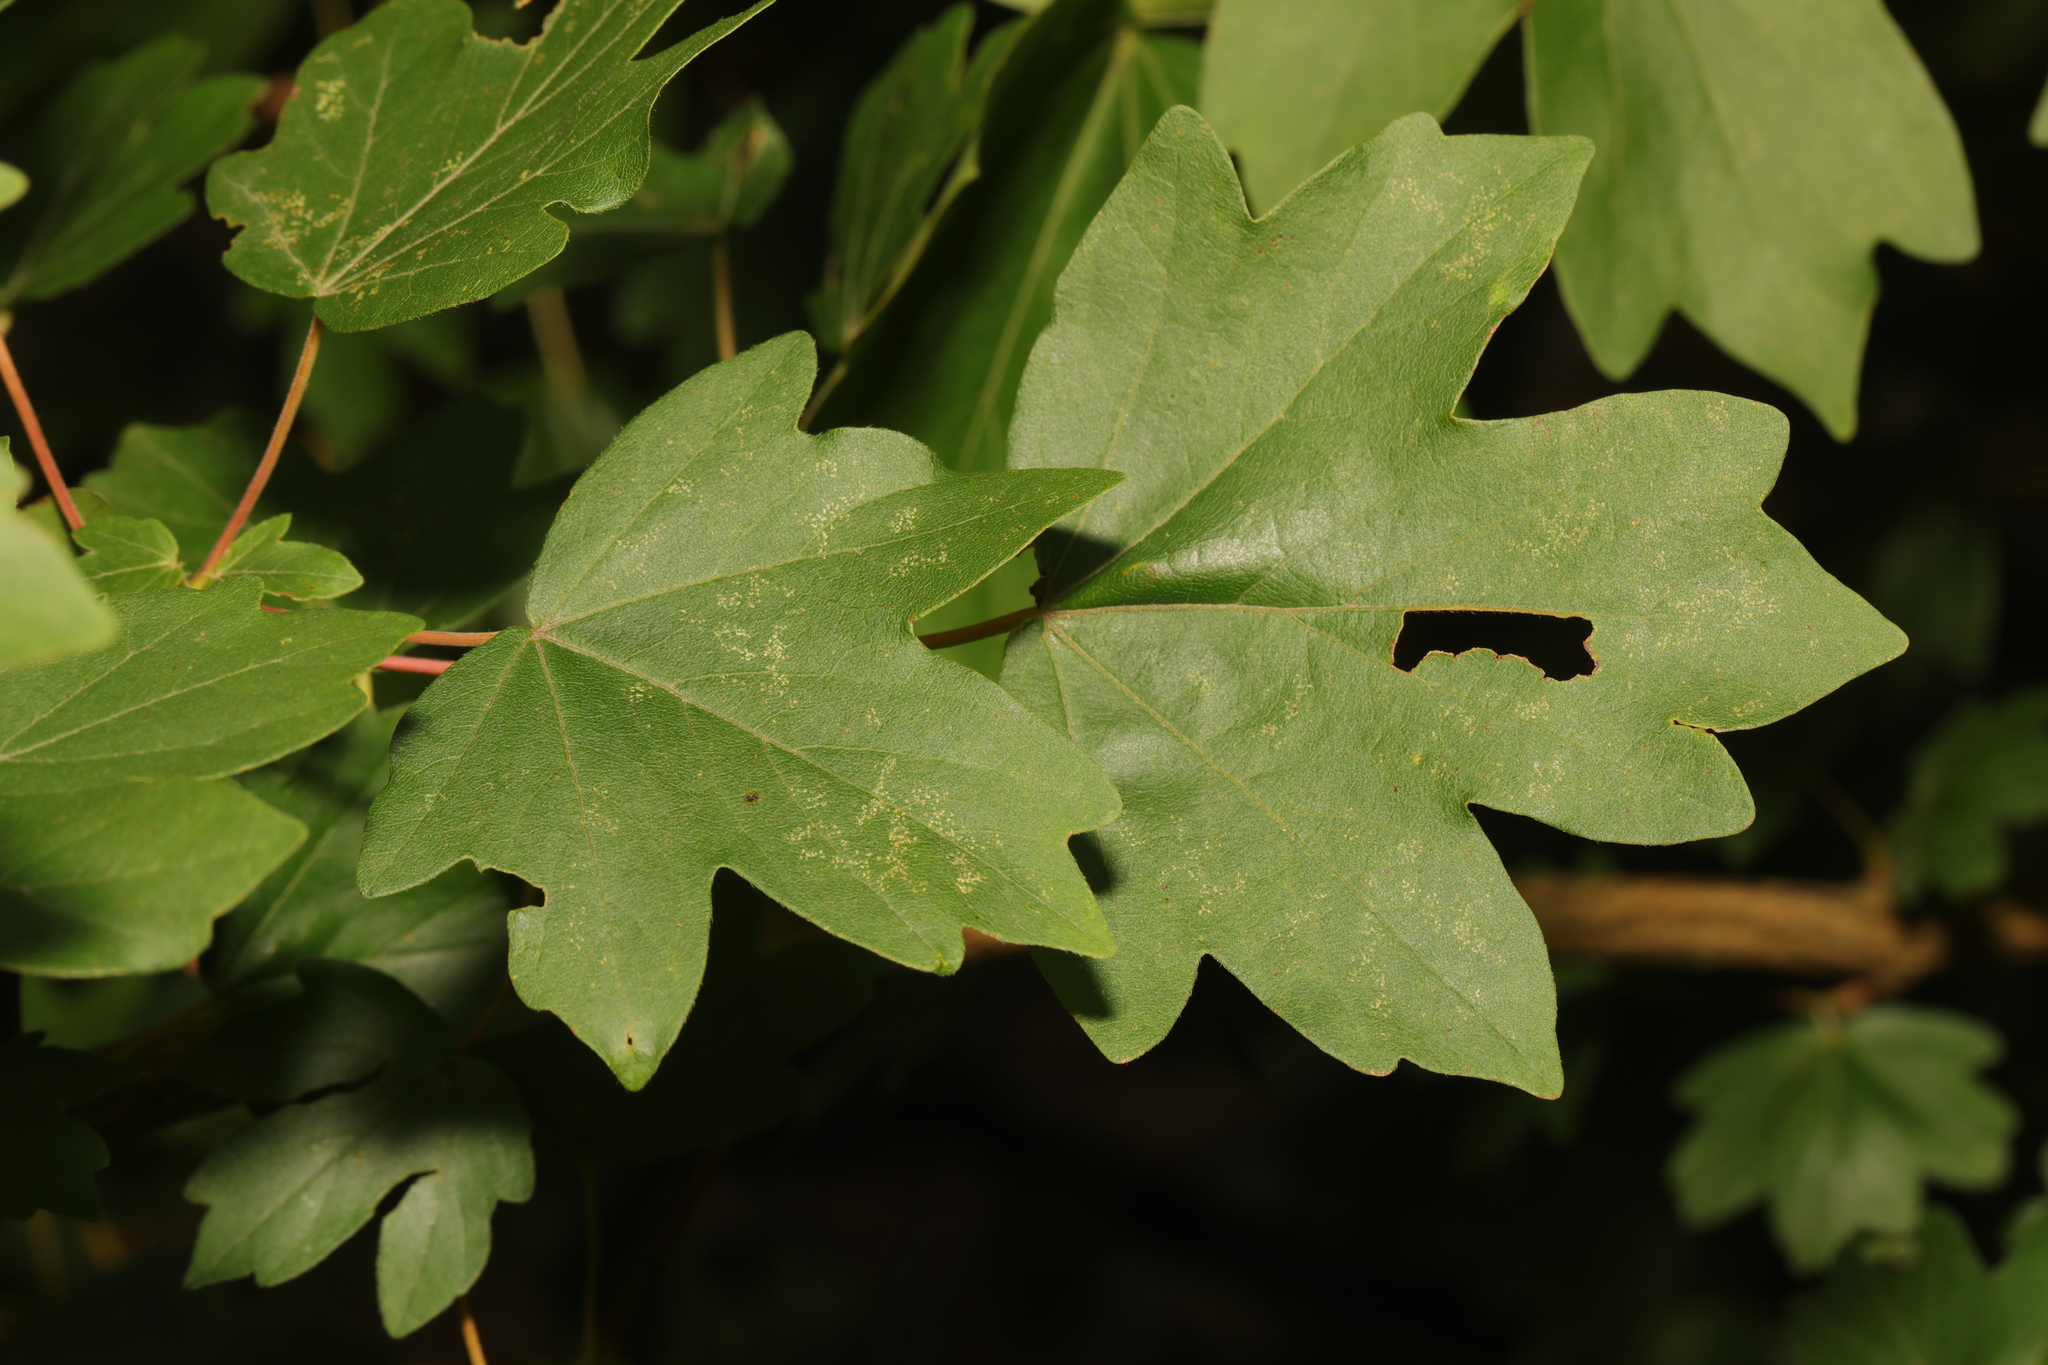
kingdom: Plantae
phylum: Tracheophyta
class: Magnoliopsida
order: Sapindales
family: Sapindaceae
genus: Acer
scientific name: Acer campestre
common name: Field maple
